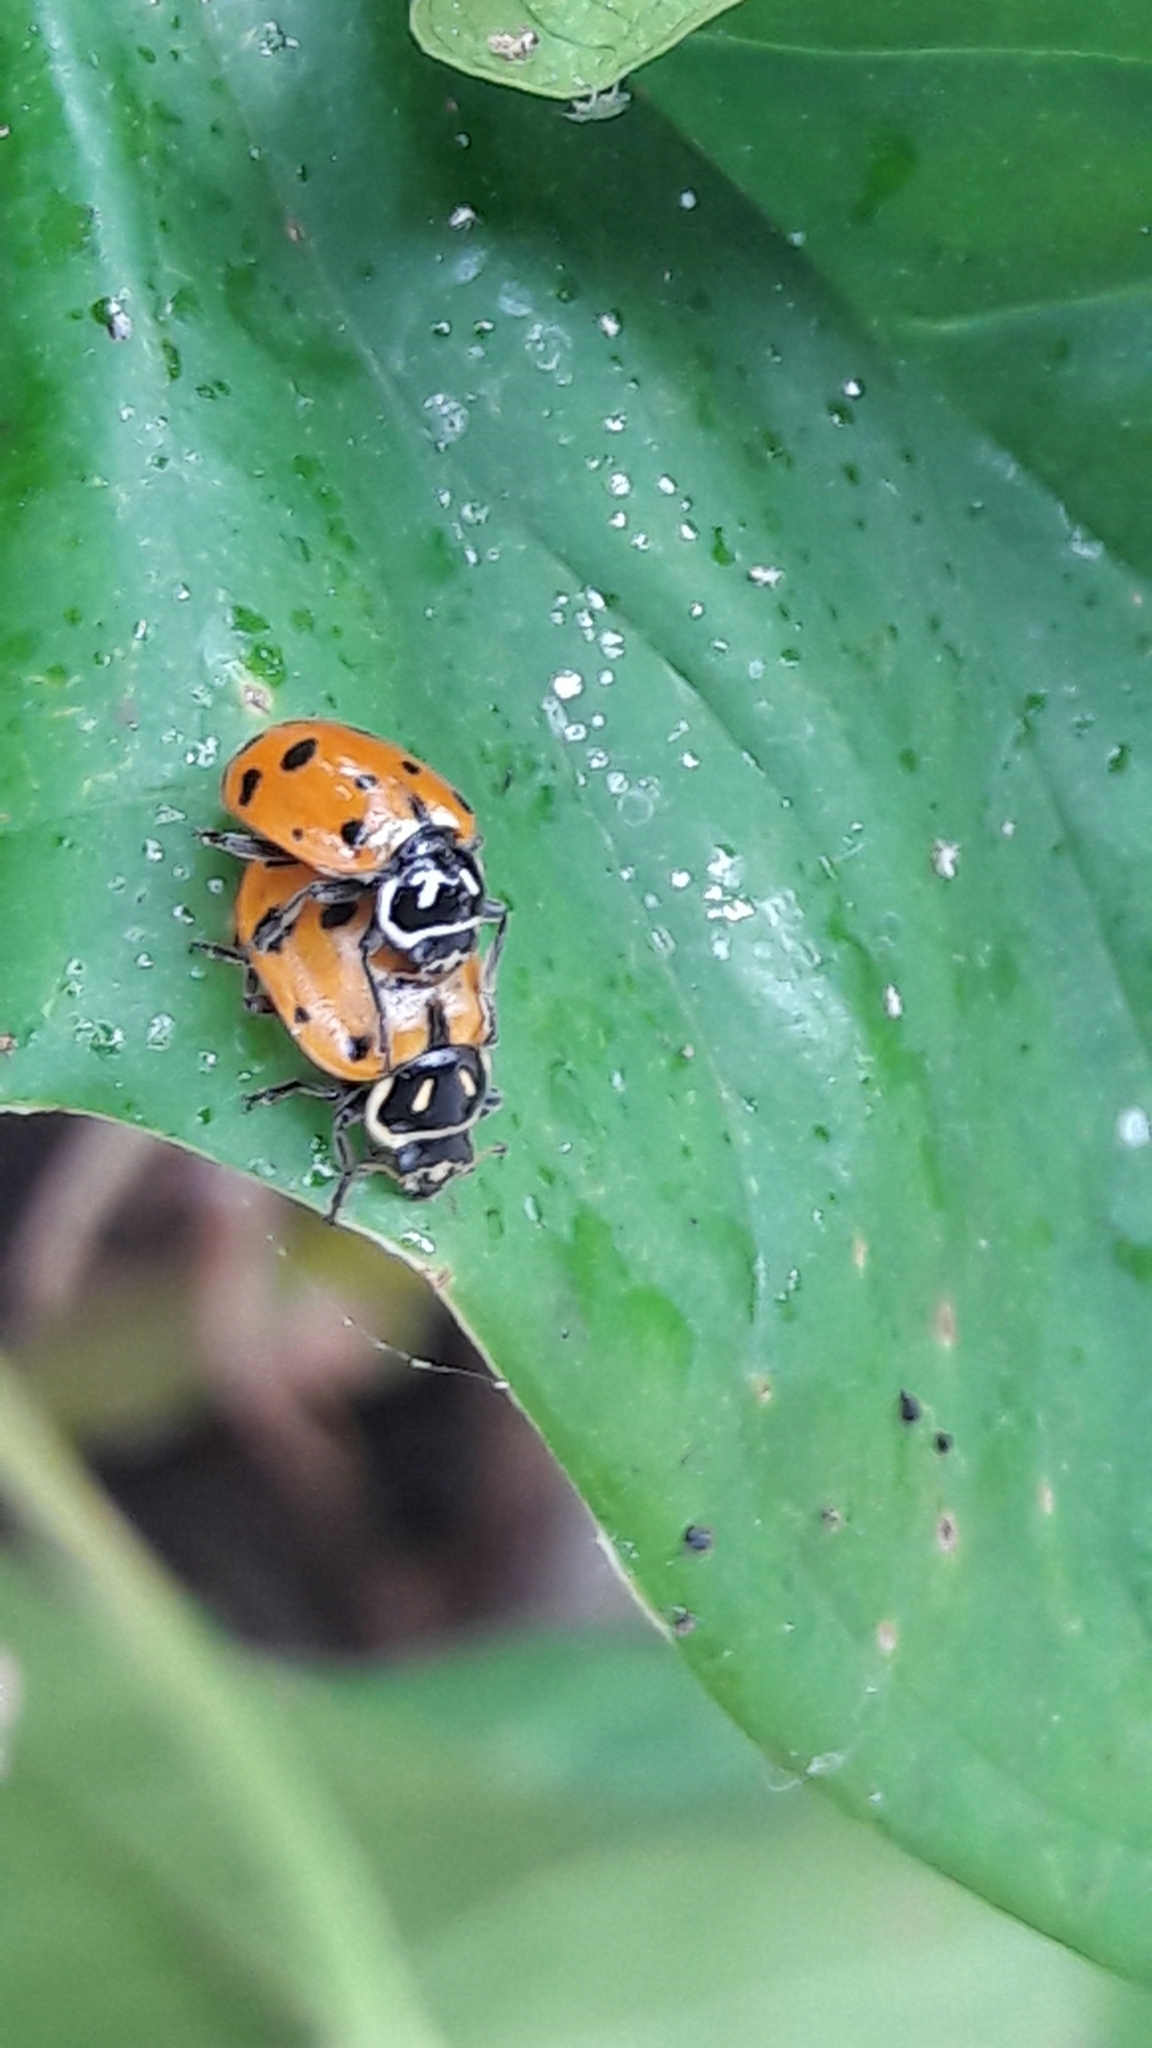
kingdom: Animalia
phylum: Arthropoda
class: Insecta
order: Coleoptera
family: Coccinellidae
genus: Hippodamia
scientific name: Hippodamia convergens
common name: Convergent lady beetle
